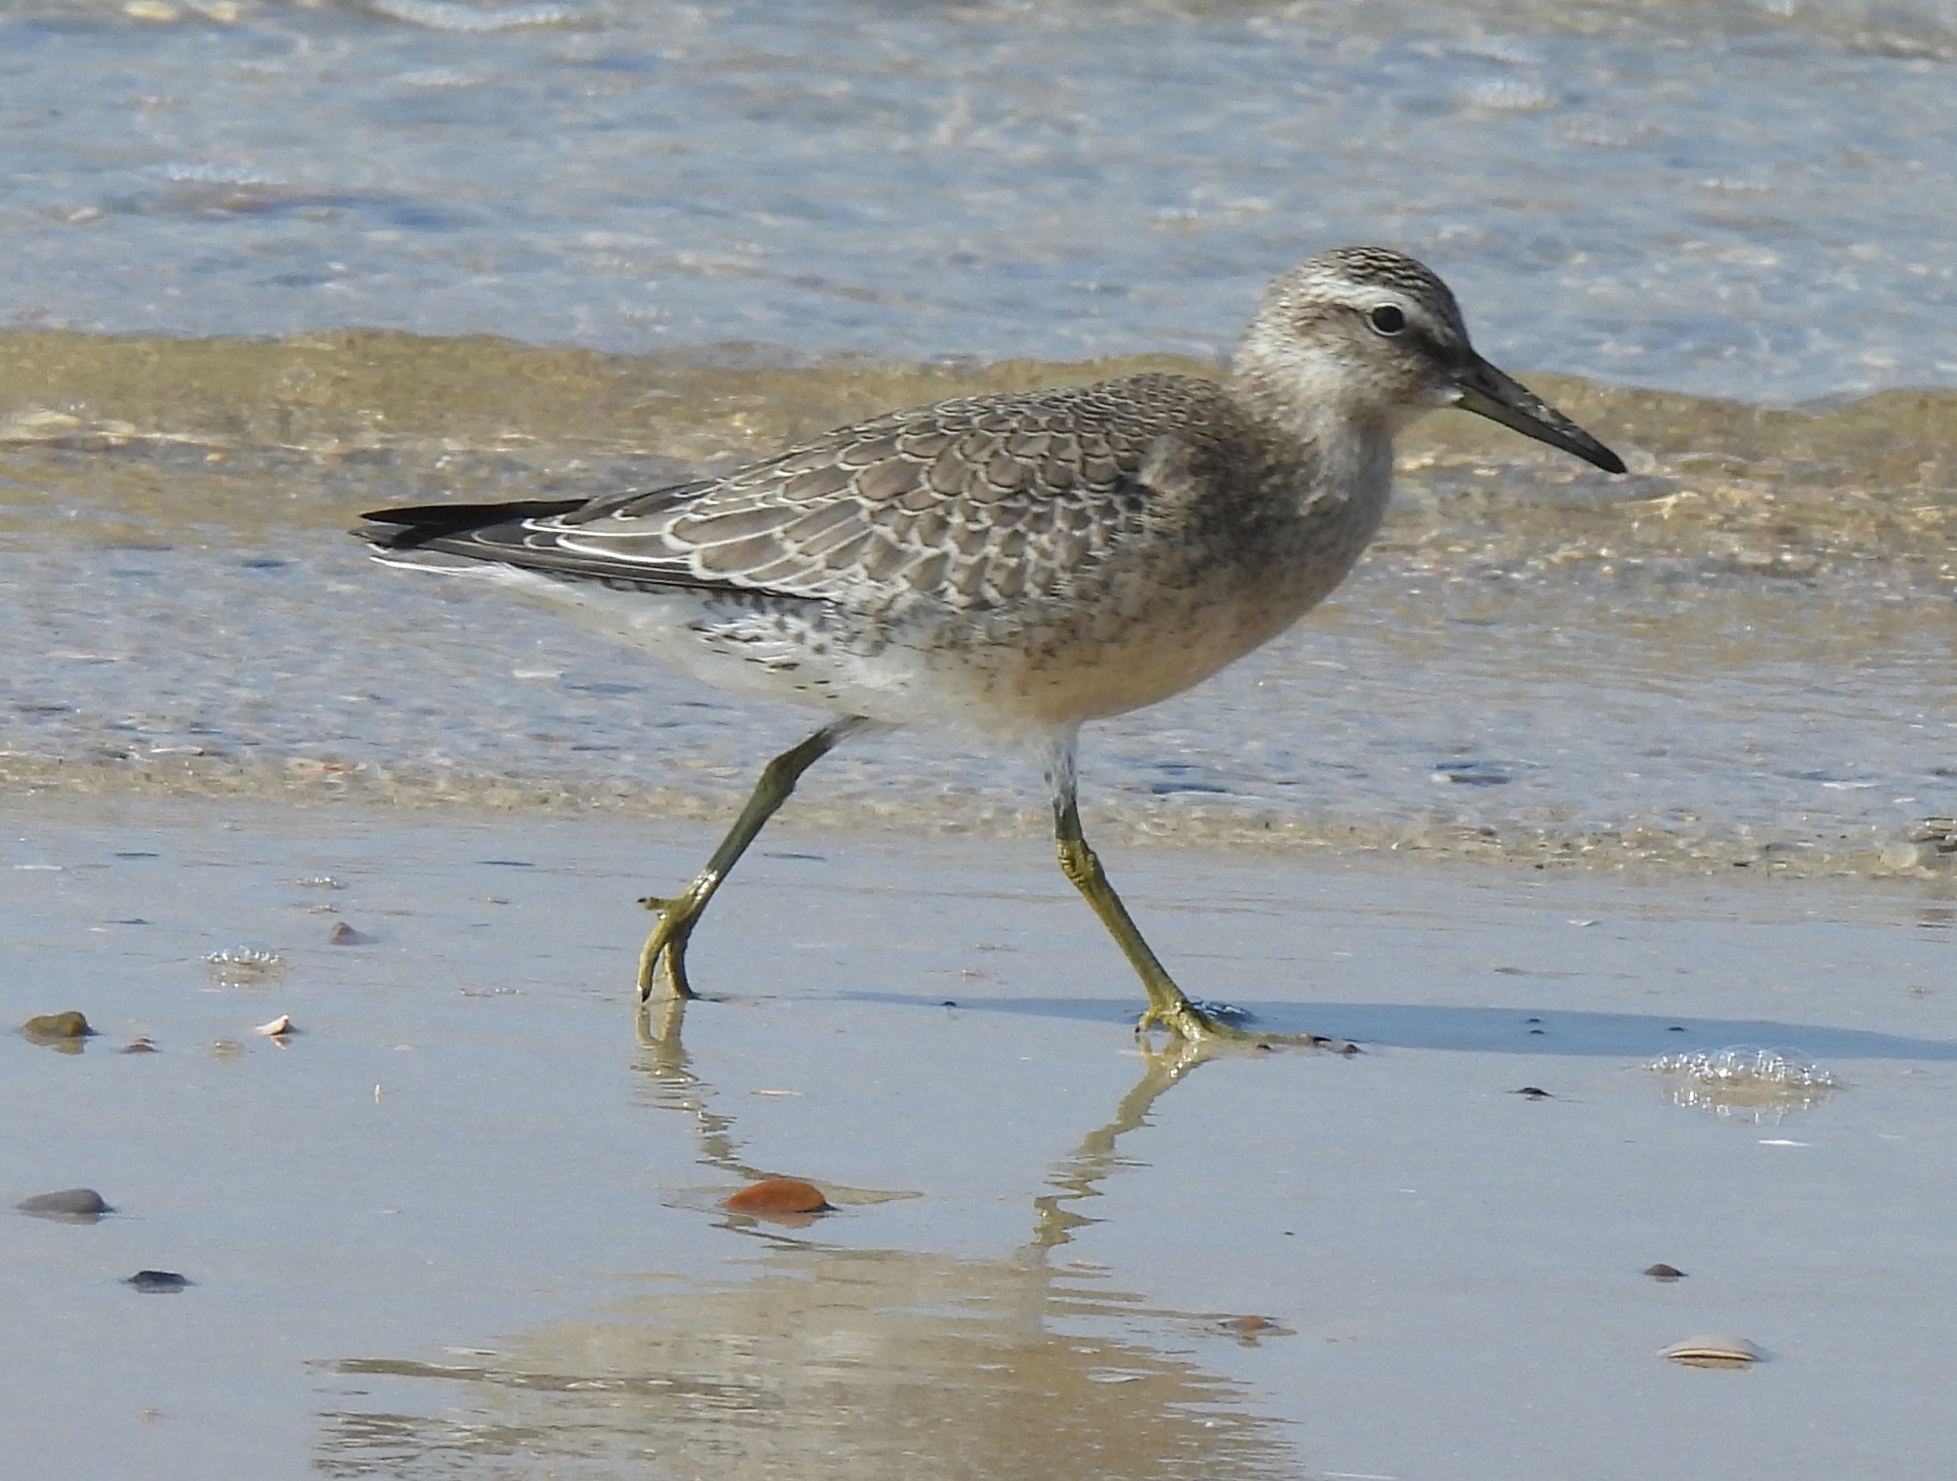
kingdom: Animalia
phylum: Chordata
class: Aves
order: Charadriiformes
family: Scolopacidae
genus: Calidris
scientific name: Calidris canutus
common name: Red knot
